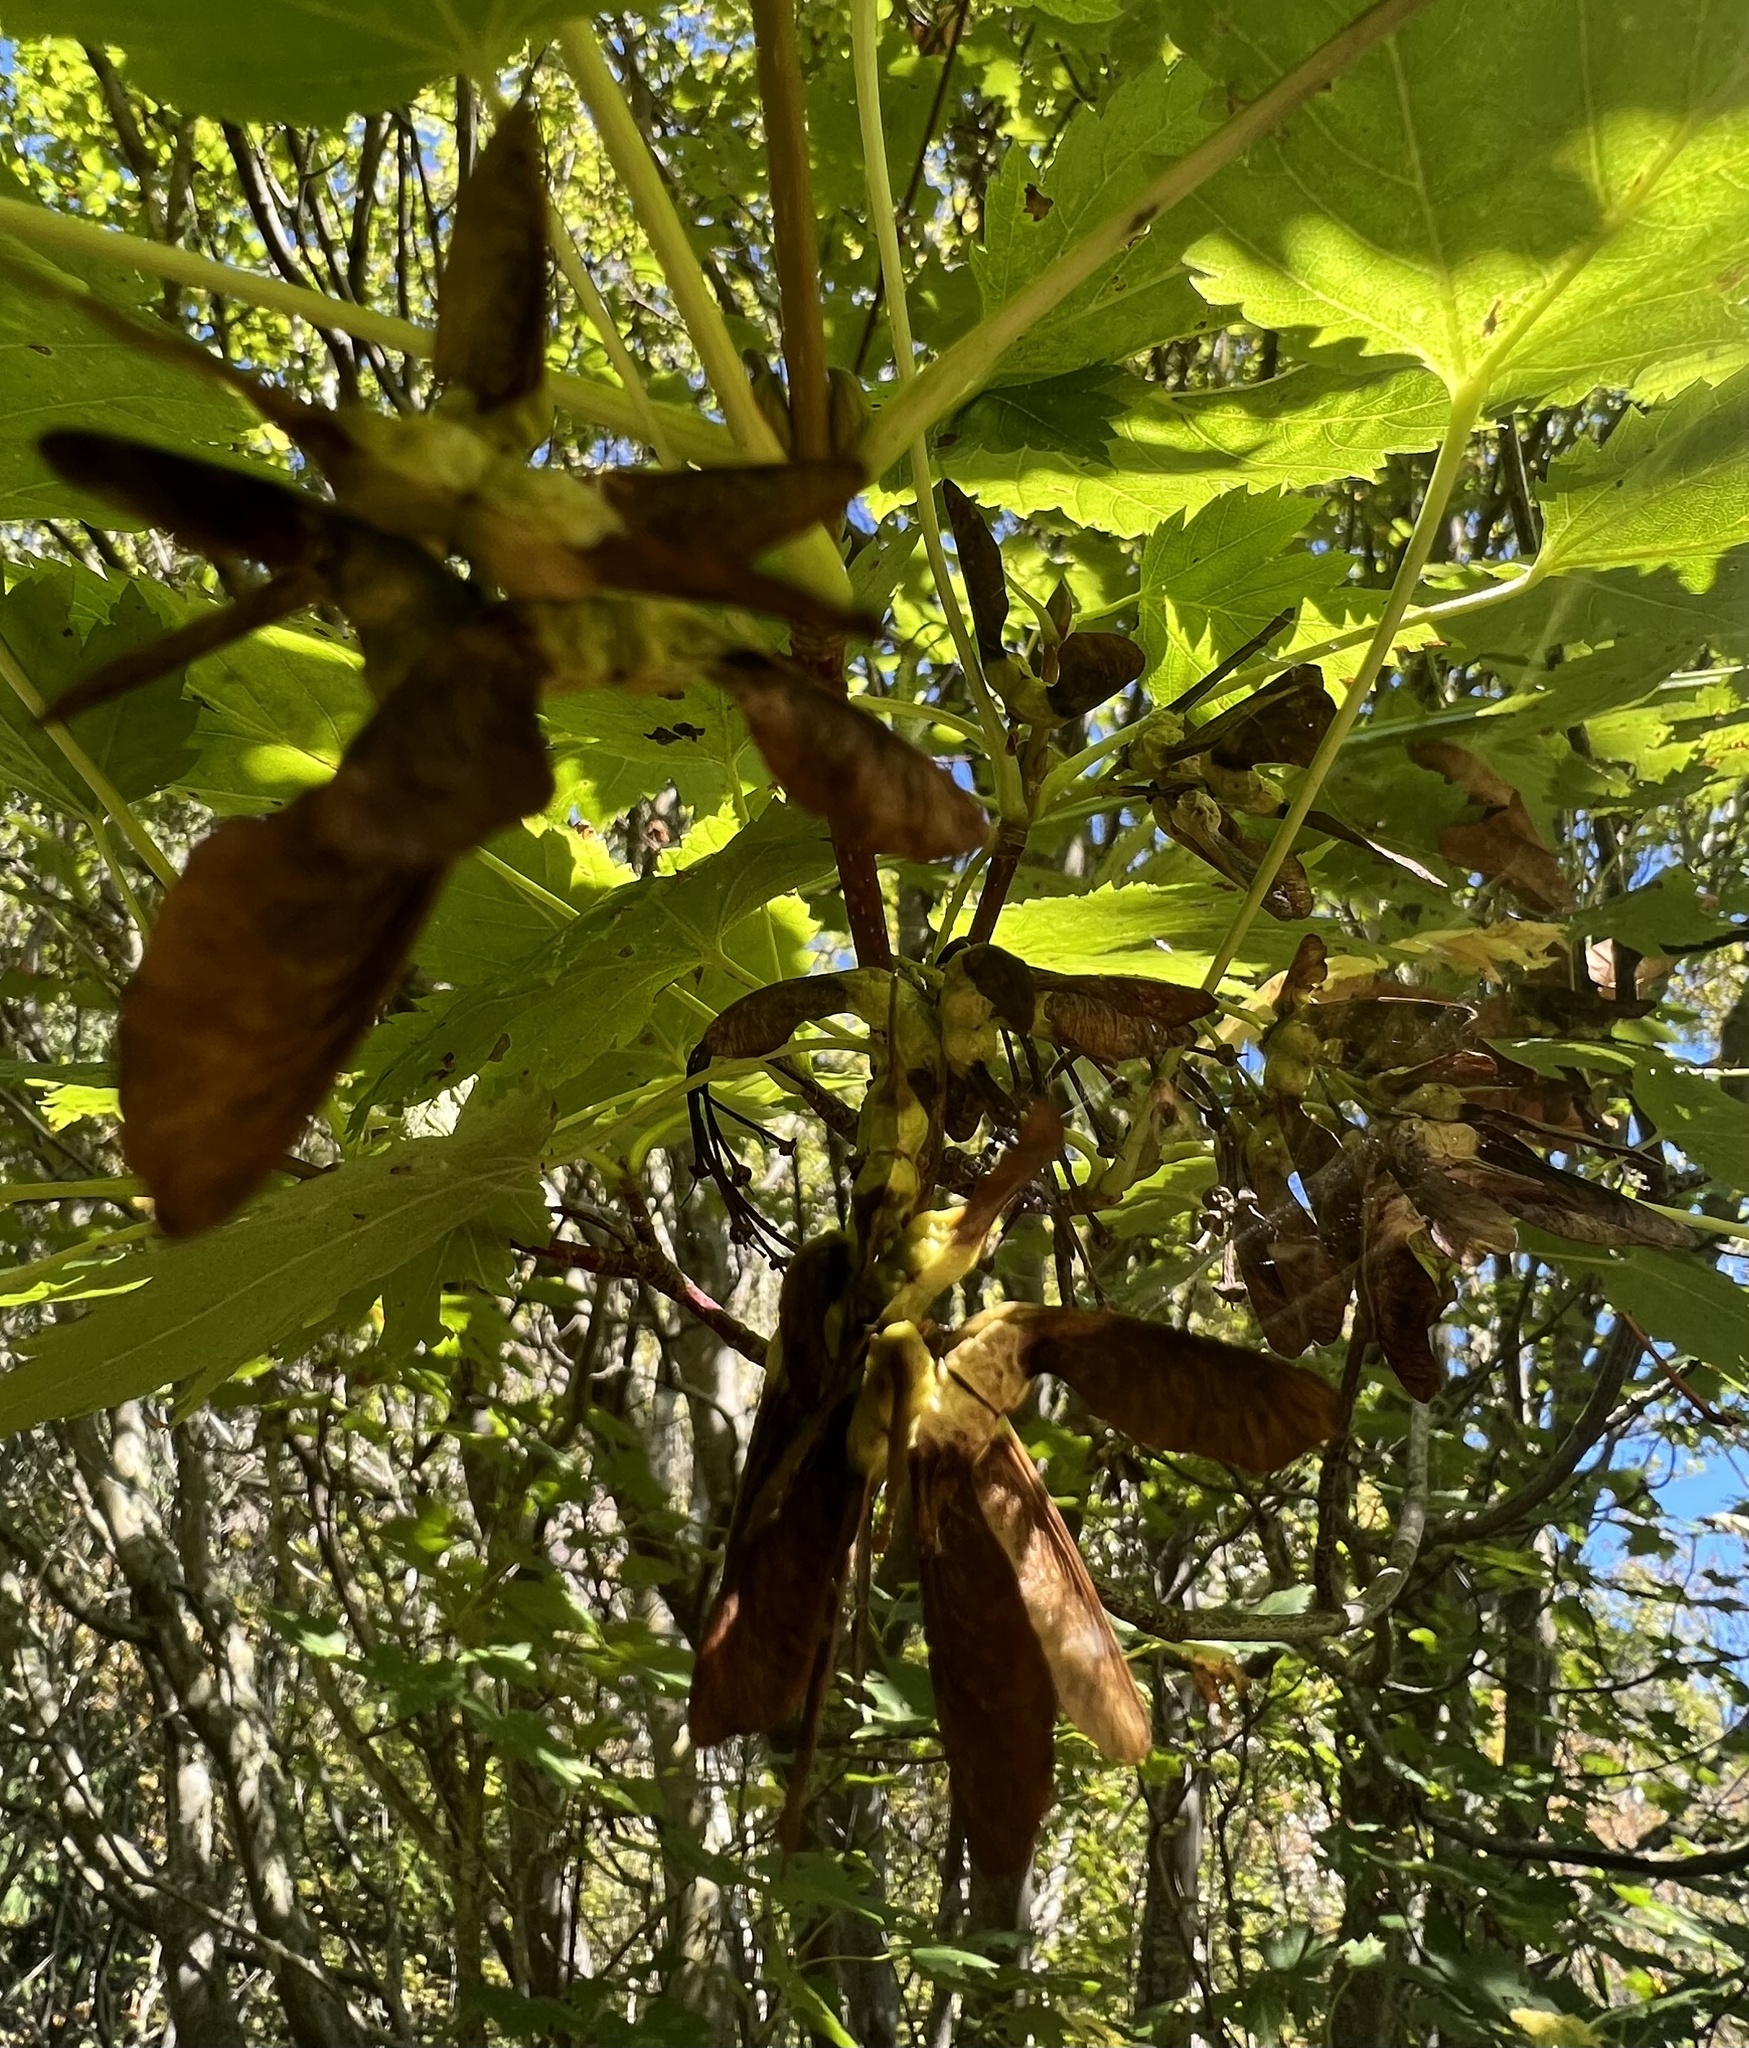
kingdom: Plantae
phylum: Tracheophyta
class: Magnoliopsida
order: Sapindales
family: Sapindaceae
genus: Acer
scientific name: Acer glabrum
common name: Rocky mountain maple
